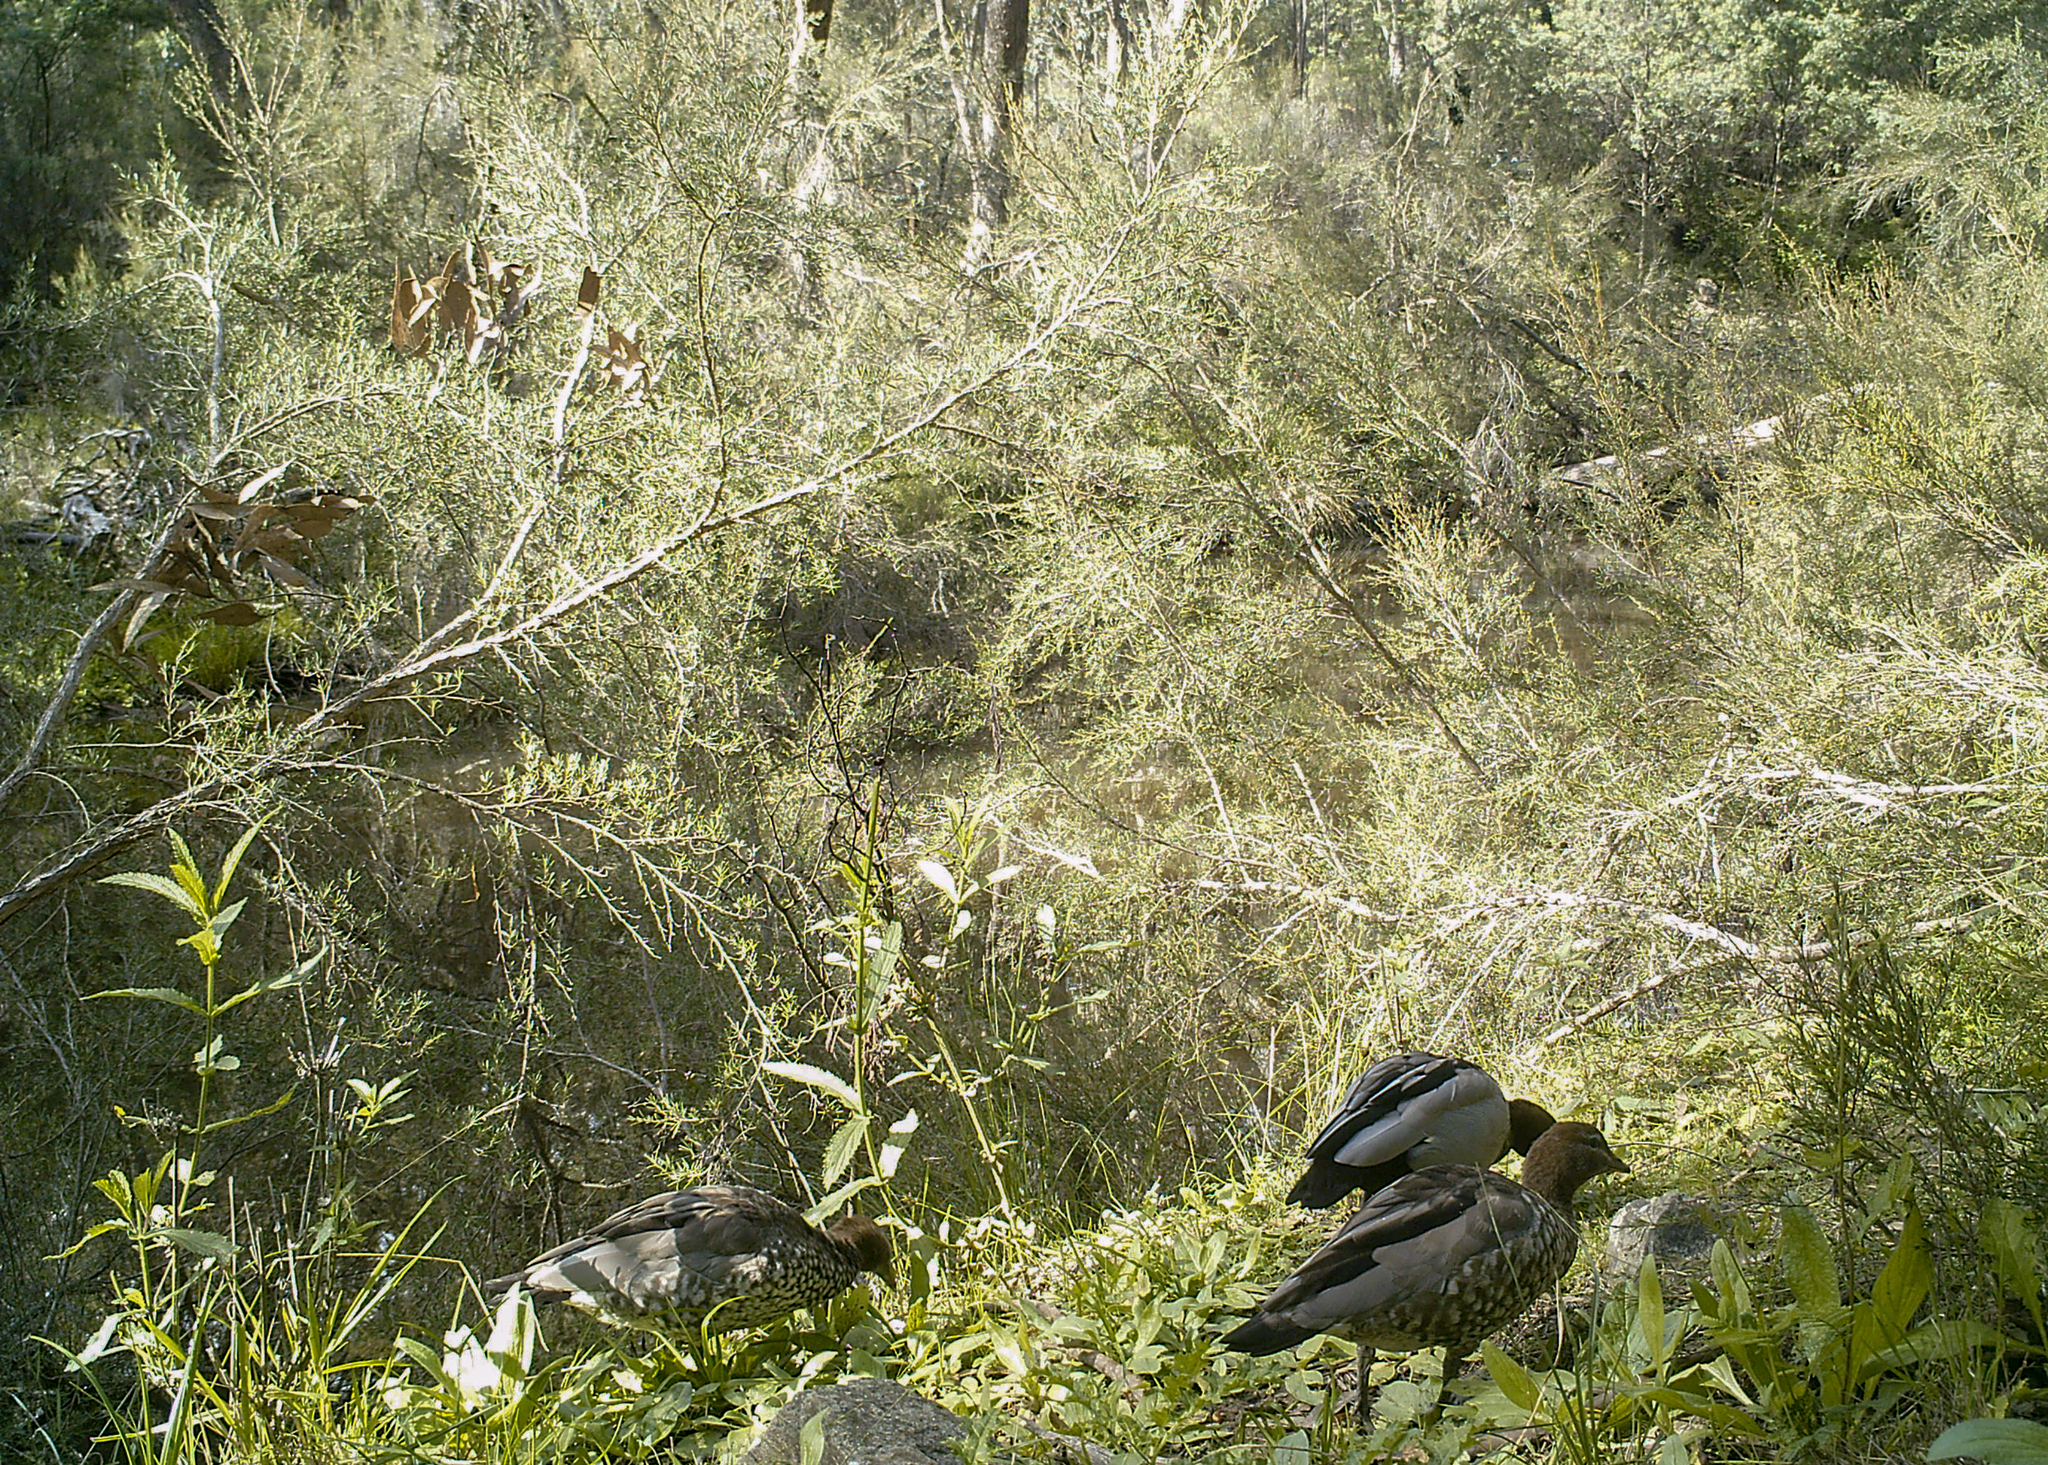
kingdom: Animalia
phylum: Chordata
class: Aves
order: Anseriformes
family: Anatidae
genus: Chenonetta
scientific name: Chenonetta jubata
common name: Maned duck
